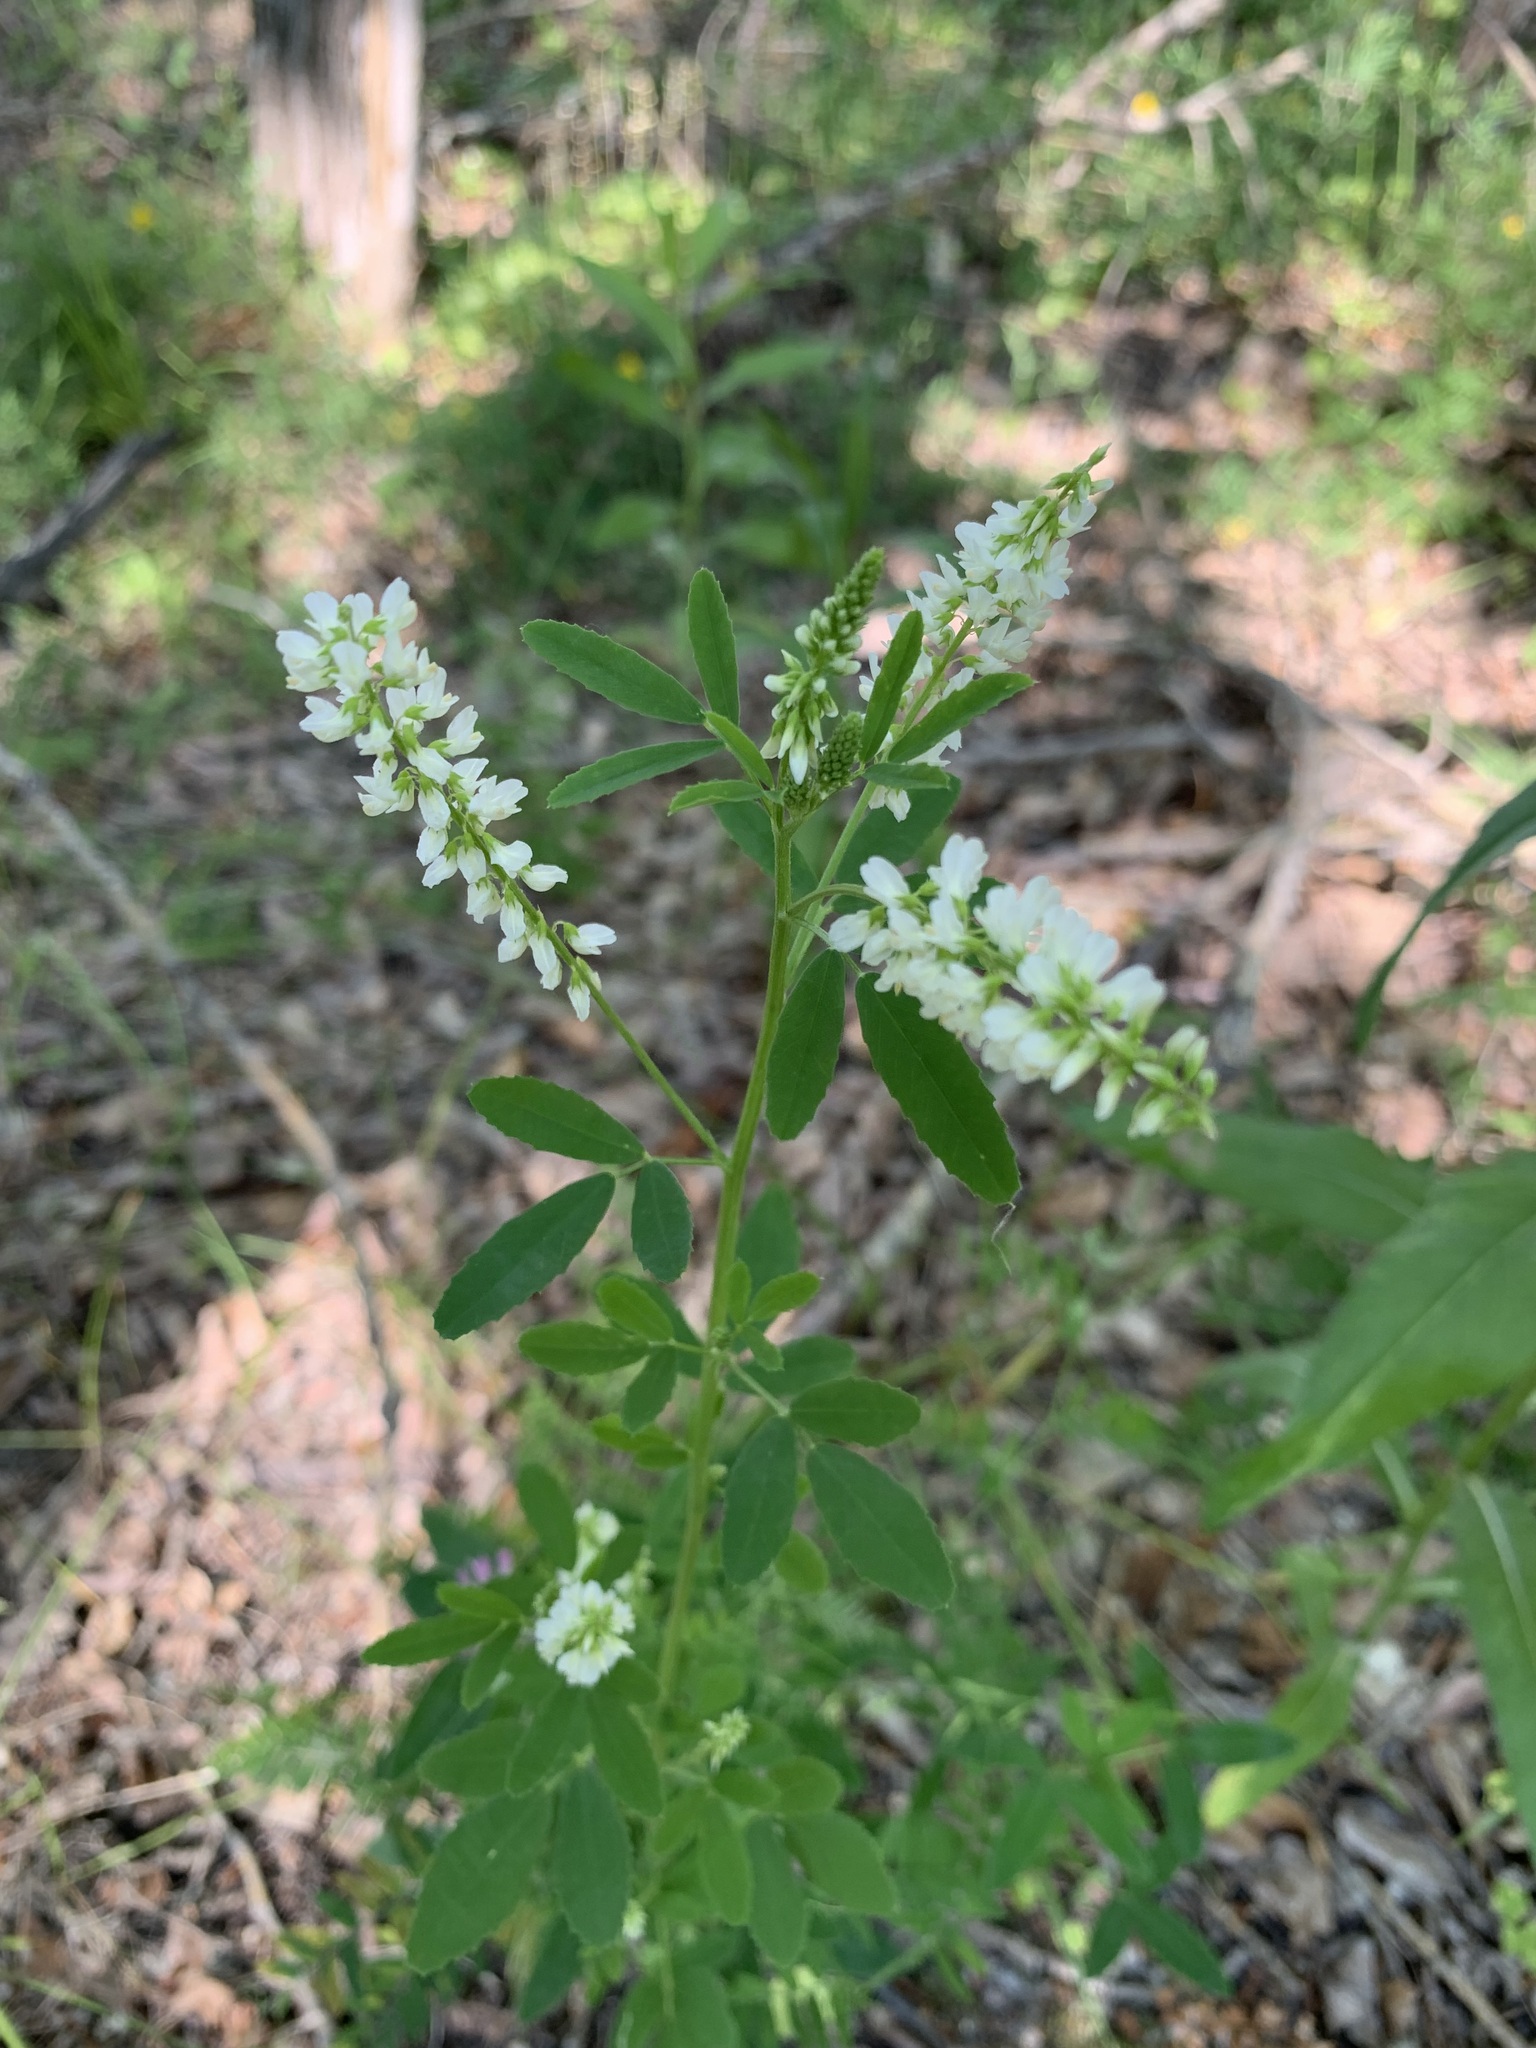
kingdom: Plantae
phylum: Tracheophyta
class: Magnoliopsida
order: Fabales
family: Fabaceae
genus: Melilotus
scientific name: Melilotus albus
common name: White melilot
